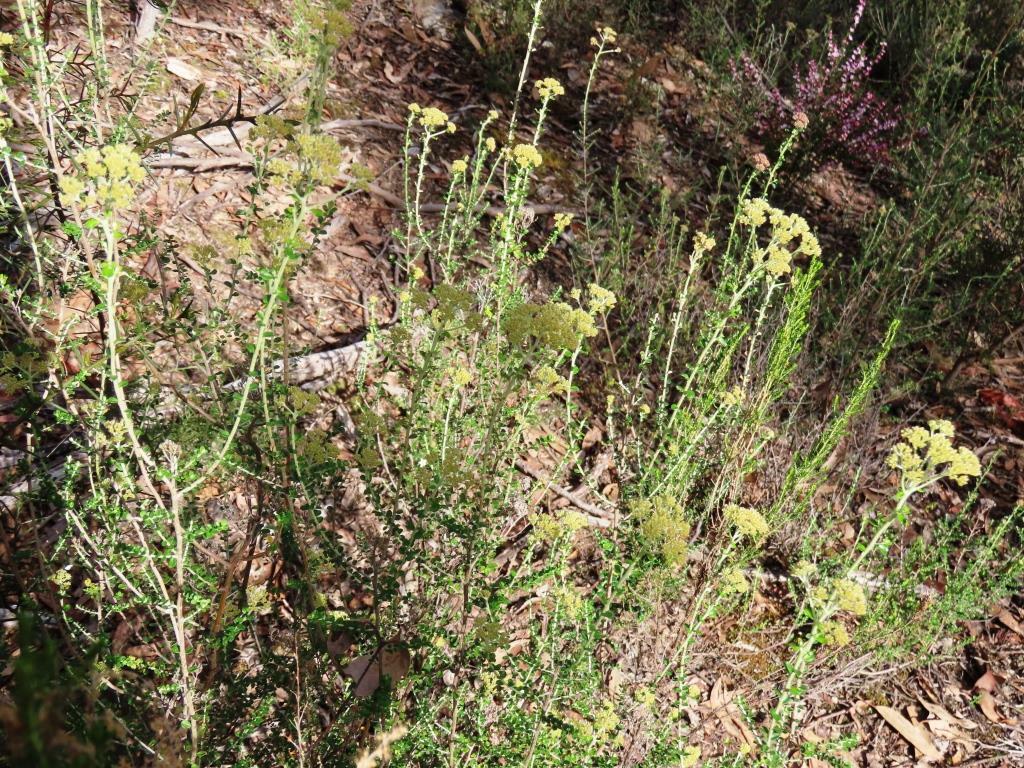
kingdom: Plantae
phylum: Tracheophyta
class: Magnoliopsida
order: Asterales
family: Asteraceae
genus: Ozothamnus
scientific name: Ozothamnus obcordatus
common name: Grey everlasting
